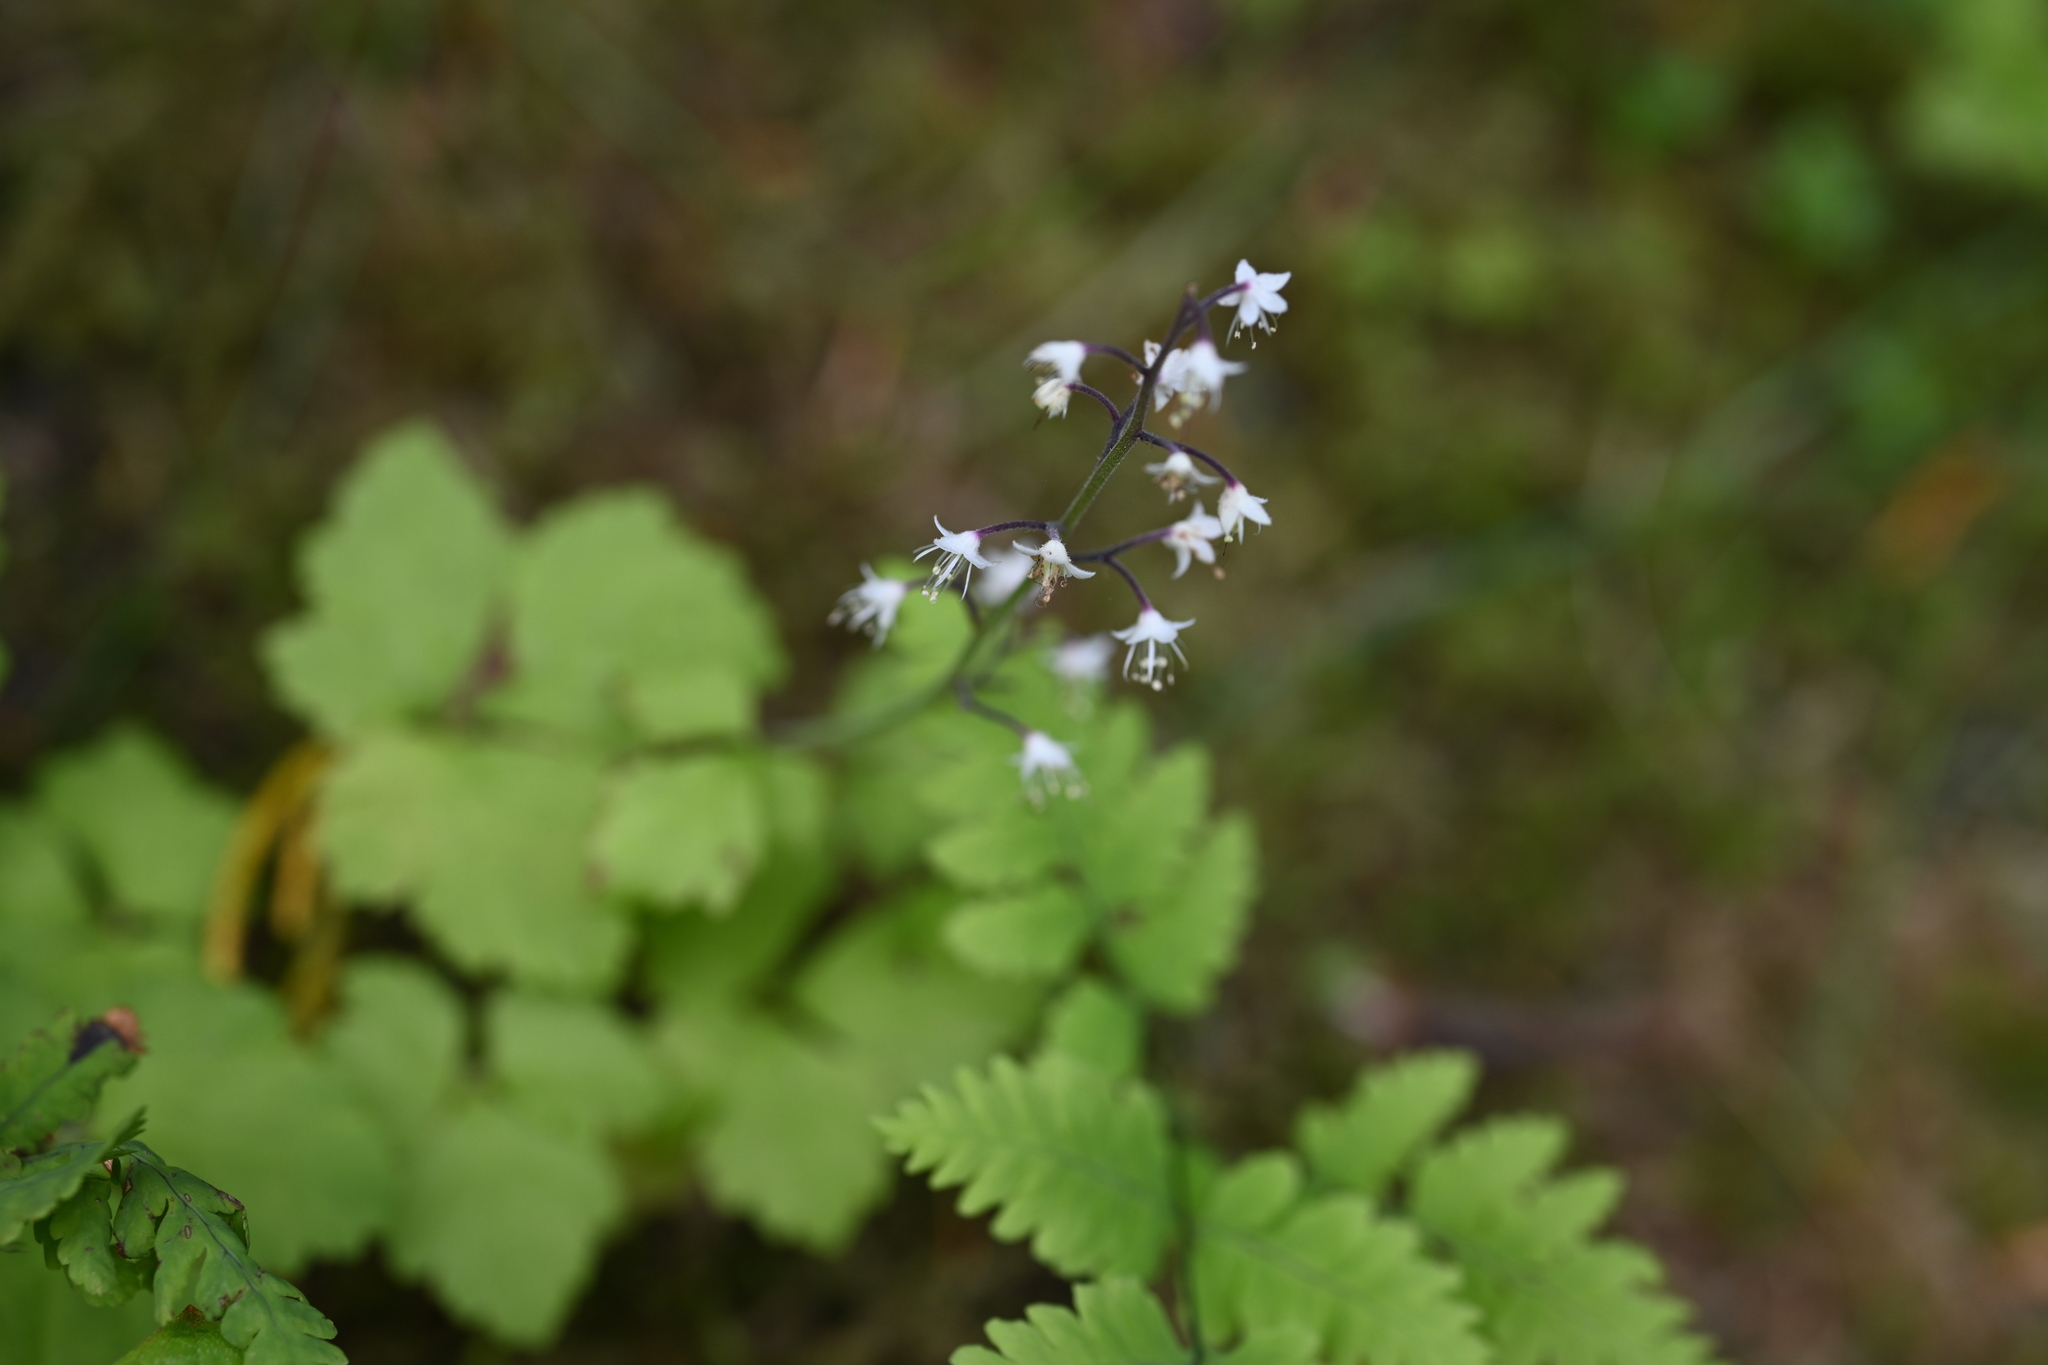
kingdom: Plantae
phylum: Tracheophyta
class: Magnoliopsida
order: Saxifragales
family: Saxifragaceae
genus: Tiarella
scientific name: Tiarella trifoliata
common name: Sugar-scoop
